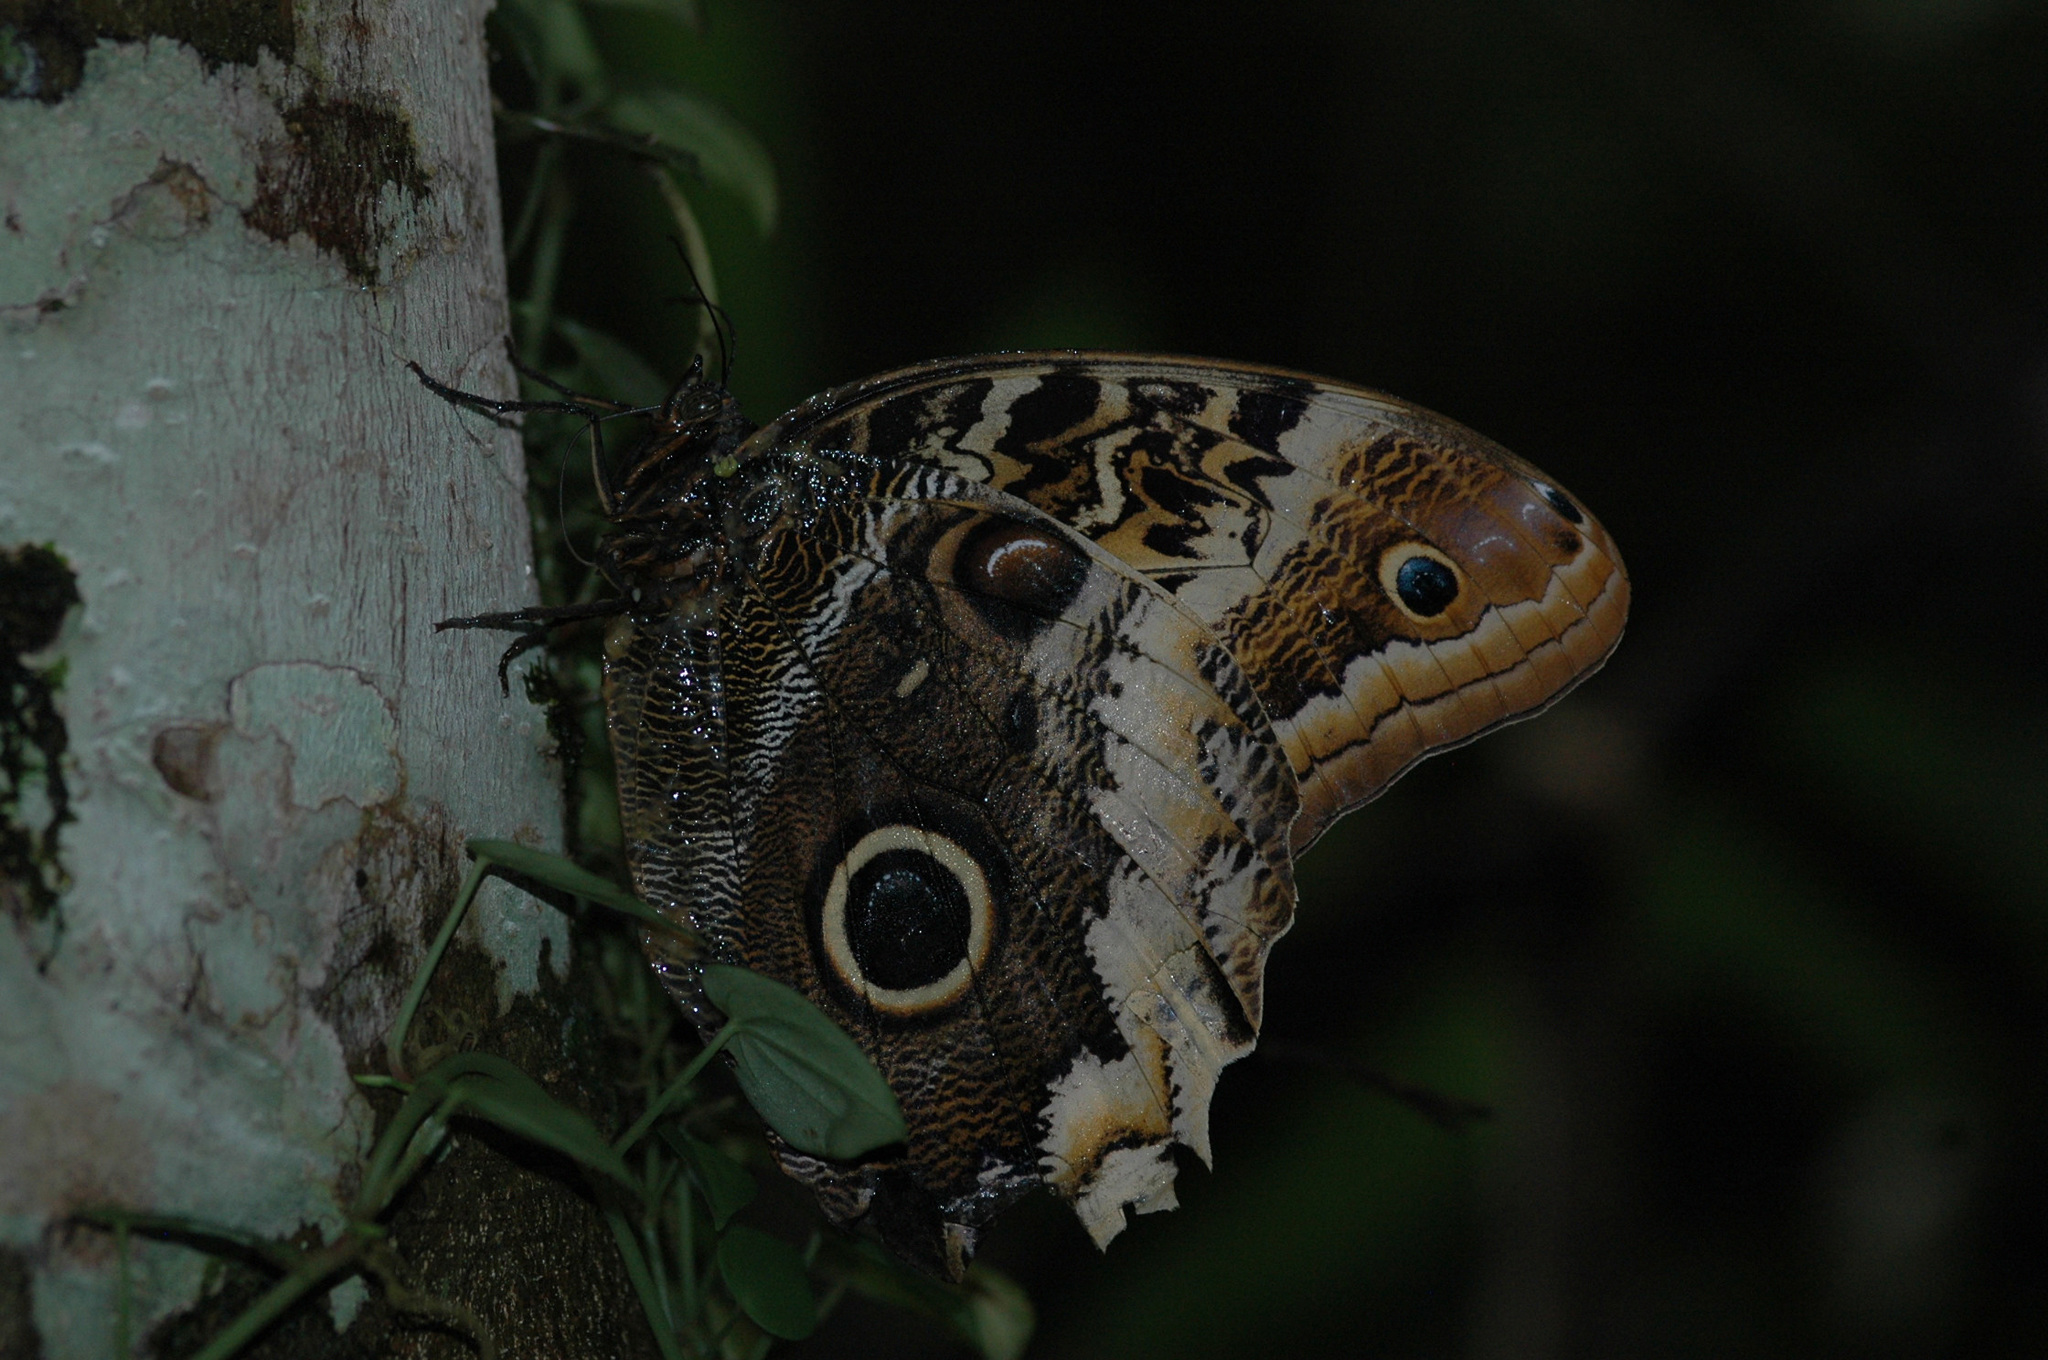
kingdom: Animalia
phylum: Arthropoda
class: Insecta
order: Lepidoptera
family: Nymphalidae
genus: Caligo
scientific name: Caligo atreus
